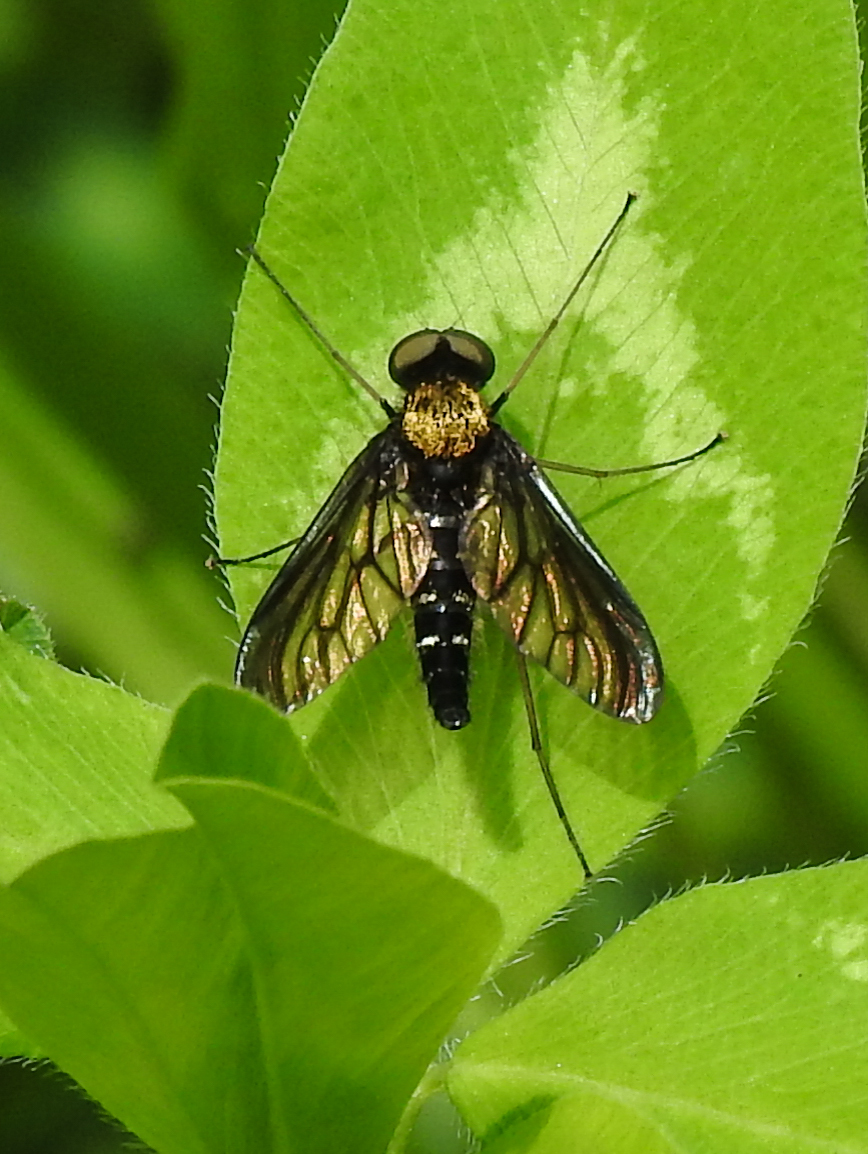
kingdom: Animalia
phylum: Arthropoda
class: Insecta
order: Diptera
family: Rhagionidae
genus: Chrysopilus
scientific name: Chrysopilus thoracicus
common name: Golden-backed snipe fly
